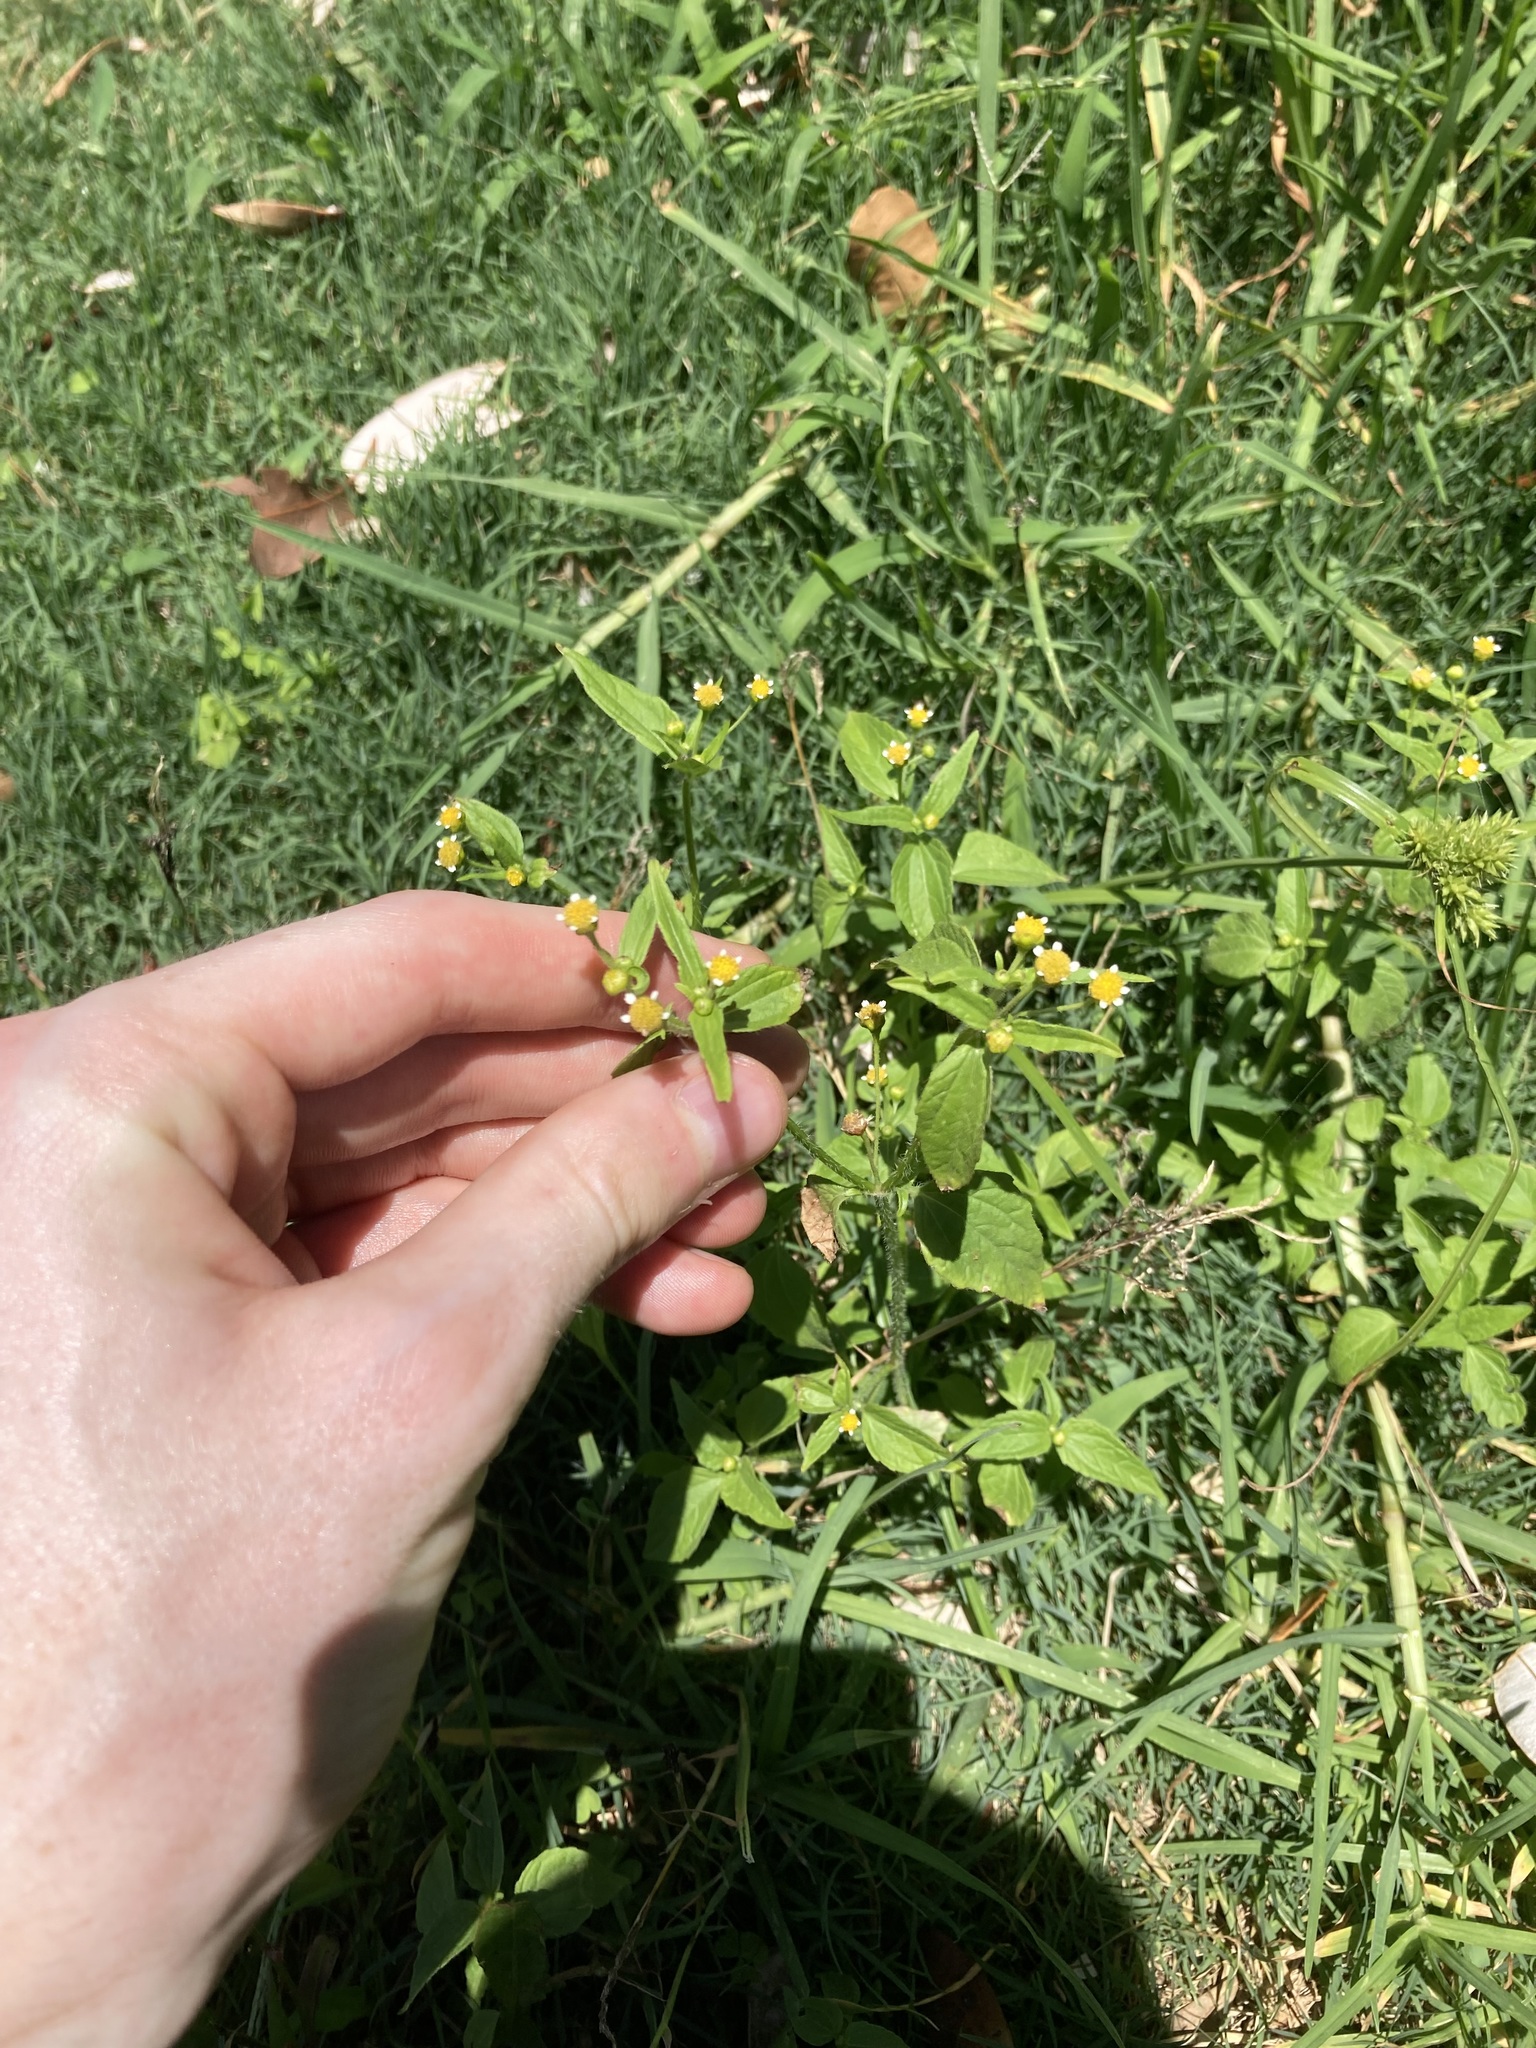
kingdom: Plantae
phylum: Tracheophyta
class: Magnoliopsida
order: Asterales
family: Asteraceae
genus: Galinsoga
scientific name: Galinsoga parviflora
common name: Gallant soldier
